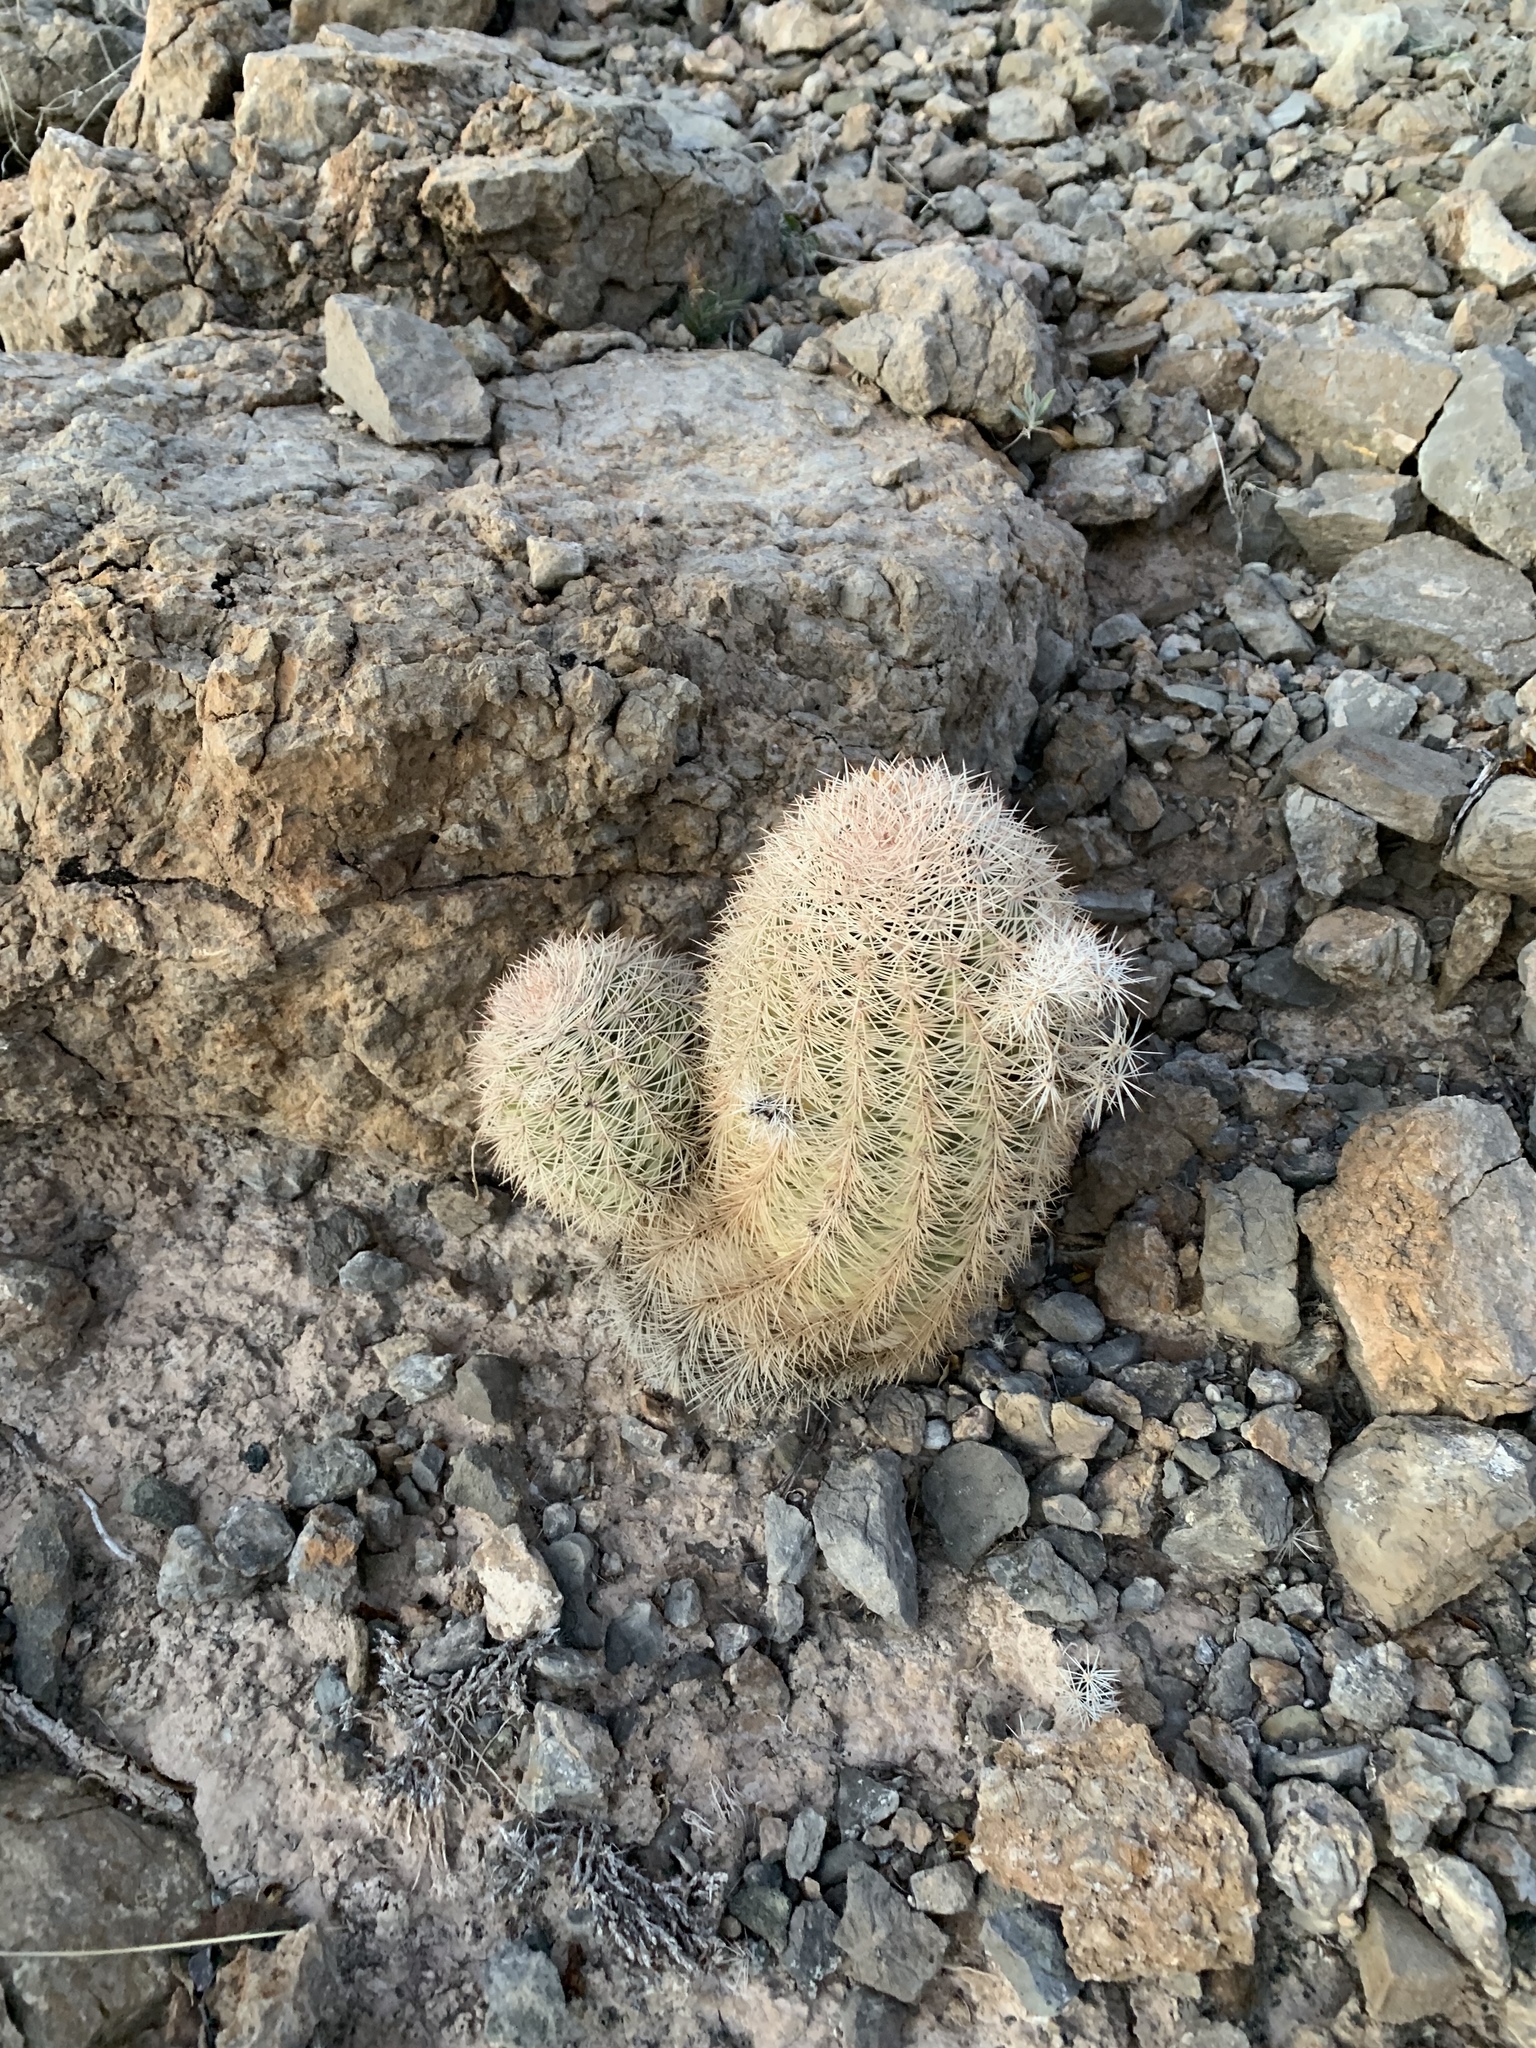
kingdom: Plantae
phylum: Tracheophyta
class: Magnoliopsida
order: Caryophyllales
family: Cactaceae
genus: Echinocereus
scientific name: Echinocereus dasyacanthus
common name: Spiny hedgehog cactus
